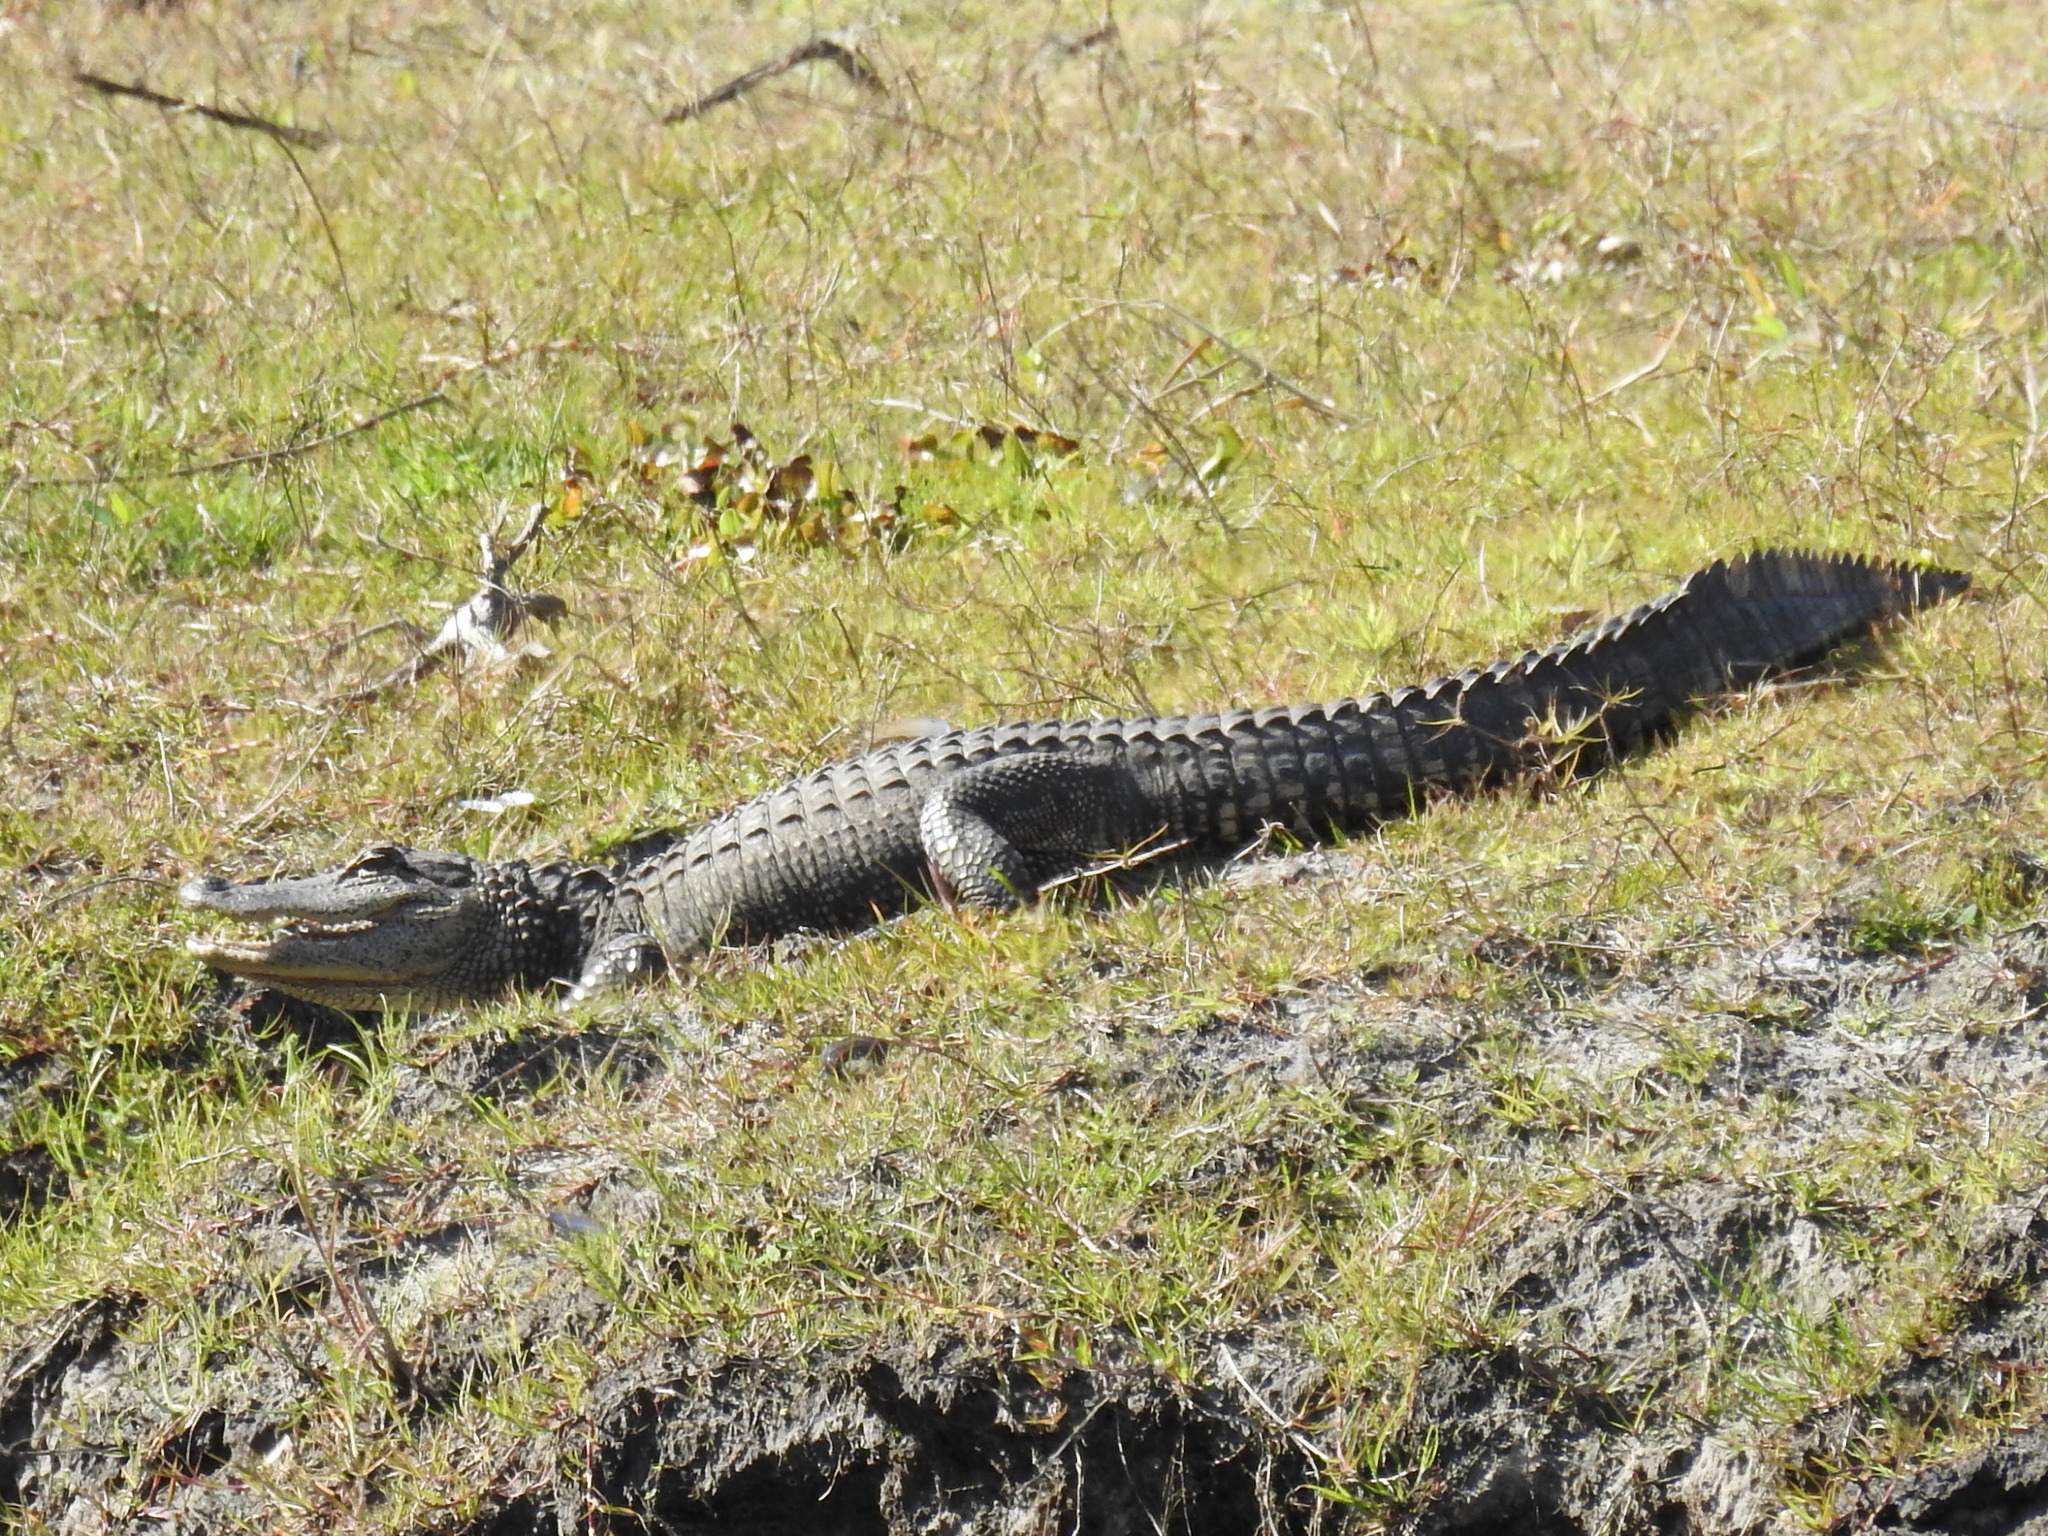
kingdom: Animalia
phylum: Chordata
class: Crocodylia
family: Alligatoridae
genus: Alligator
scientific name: Alligator mississippiensis
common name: American alligator
